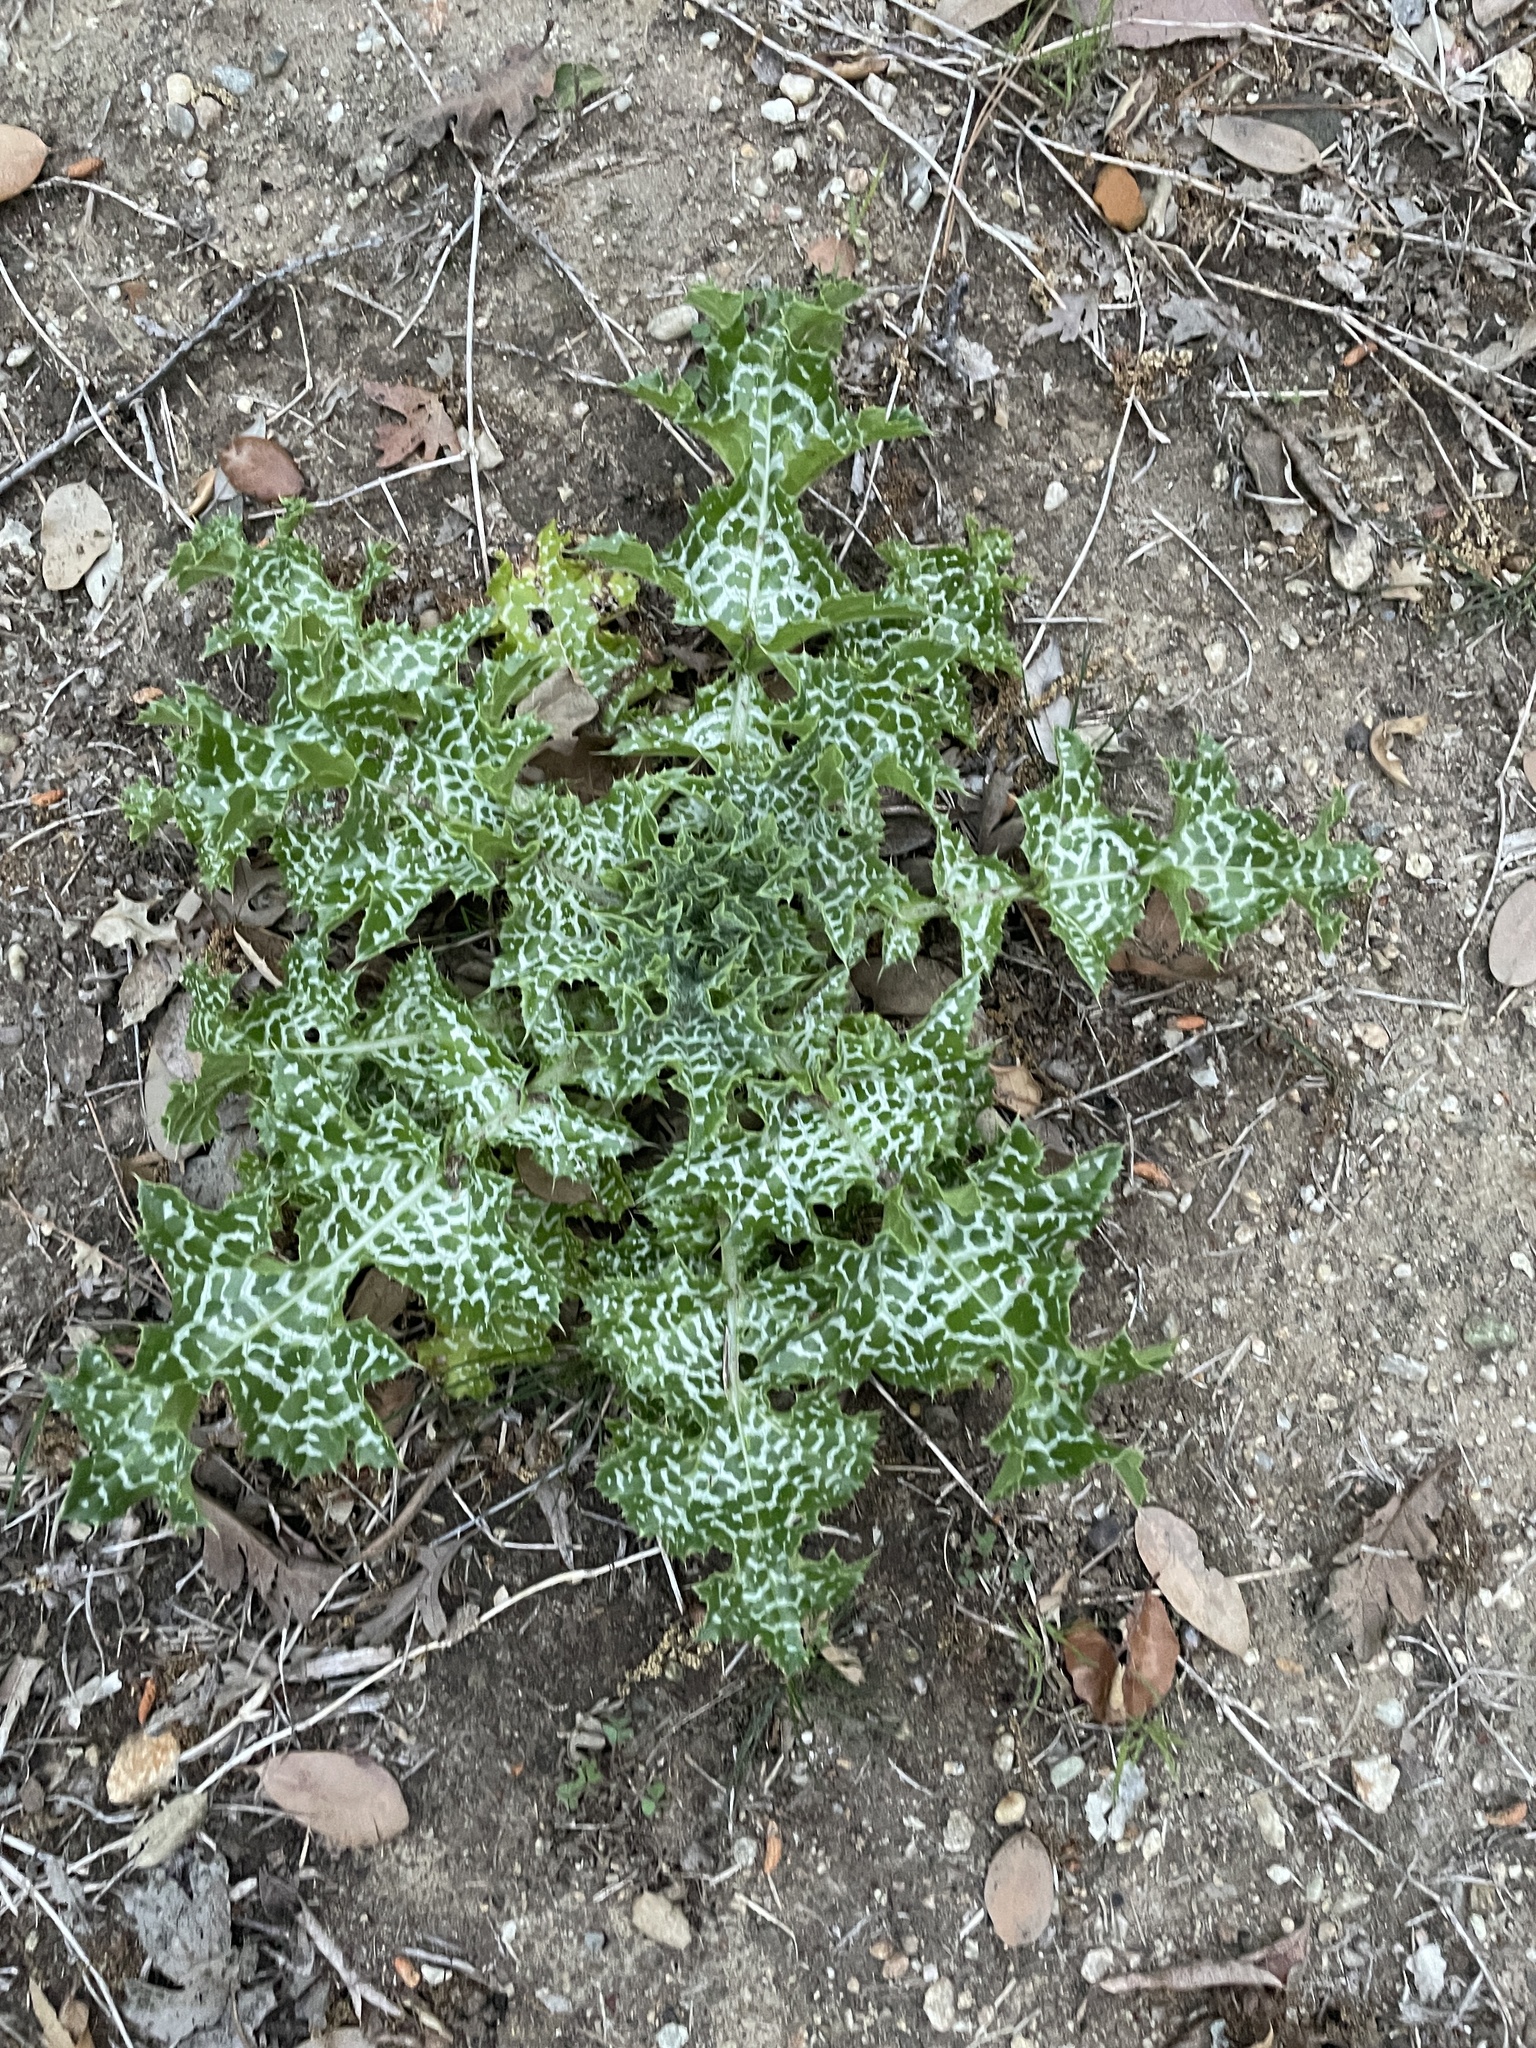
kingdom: Plantae
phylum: Tracheophyta
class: Magnoliopsida
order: Asterales
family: Asteraceae
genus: Silybum
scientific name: Silybum marianum
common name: Milk thistle
